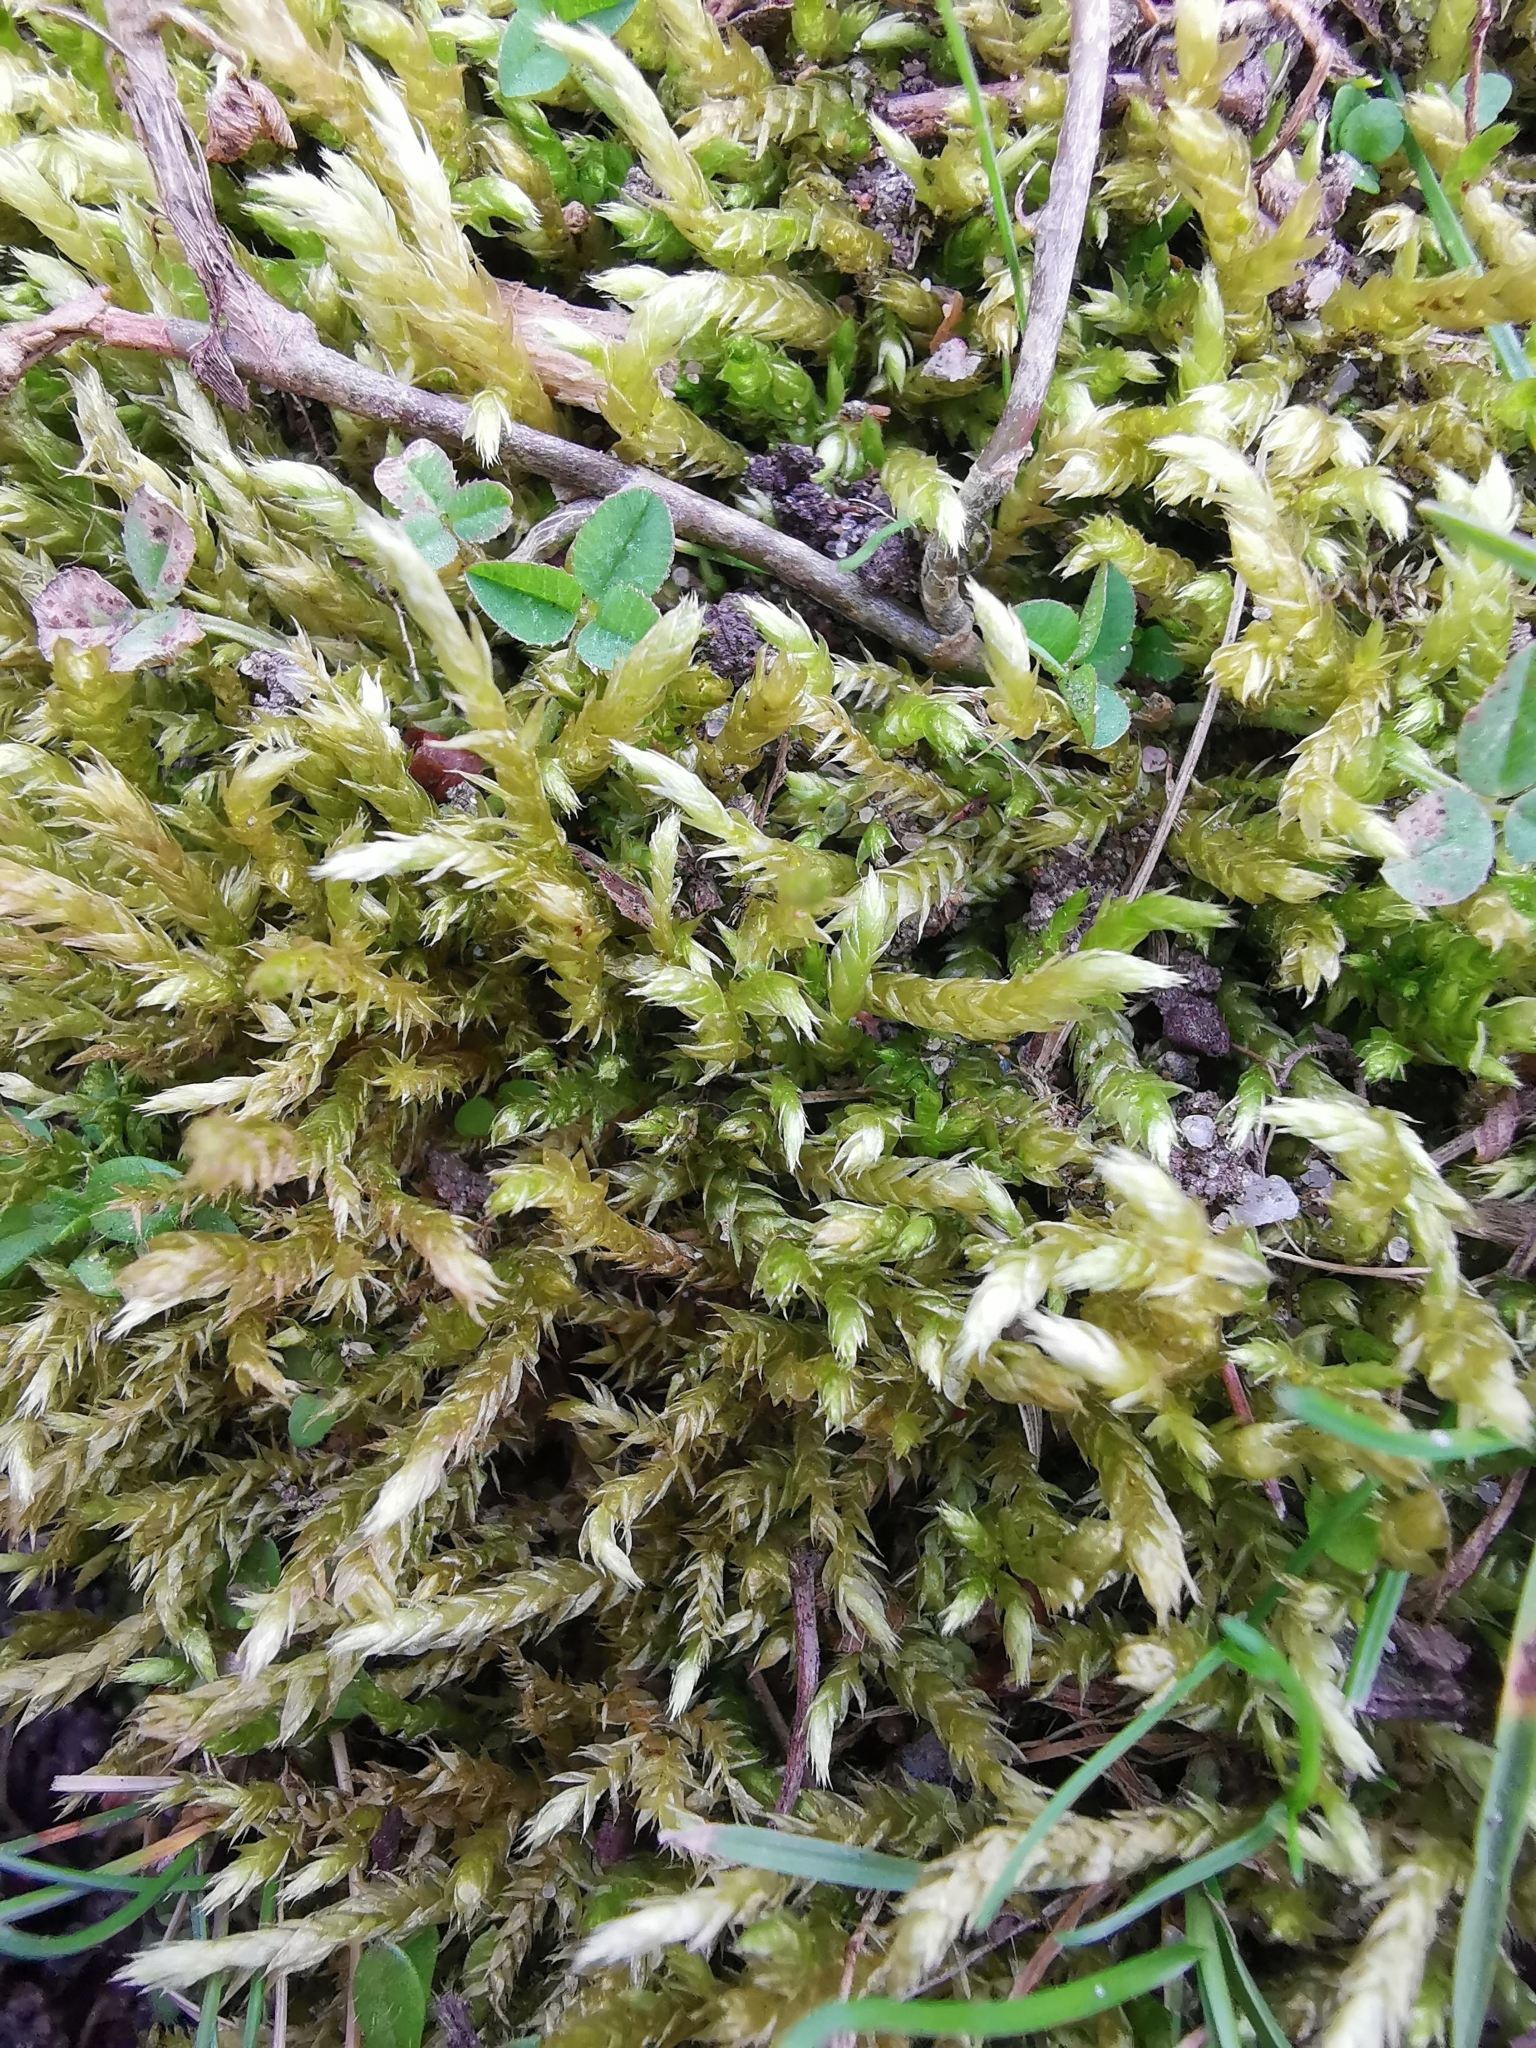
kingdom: Plantae
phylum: Bryophyta
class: Bryopsida
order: Hypnales
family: Brachytheciaceae
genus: Brachythecium
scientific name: Brachythecium rutabulum
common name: Rough-stalked feather-moss
